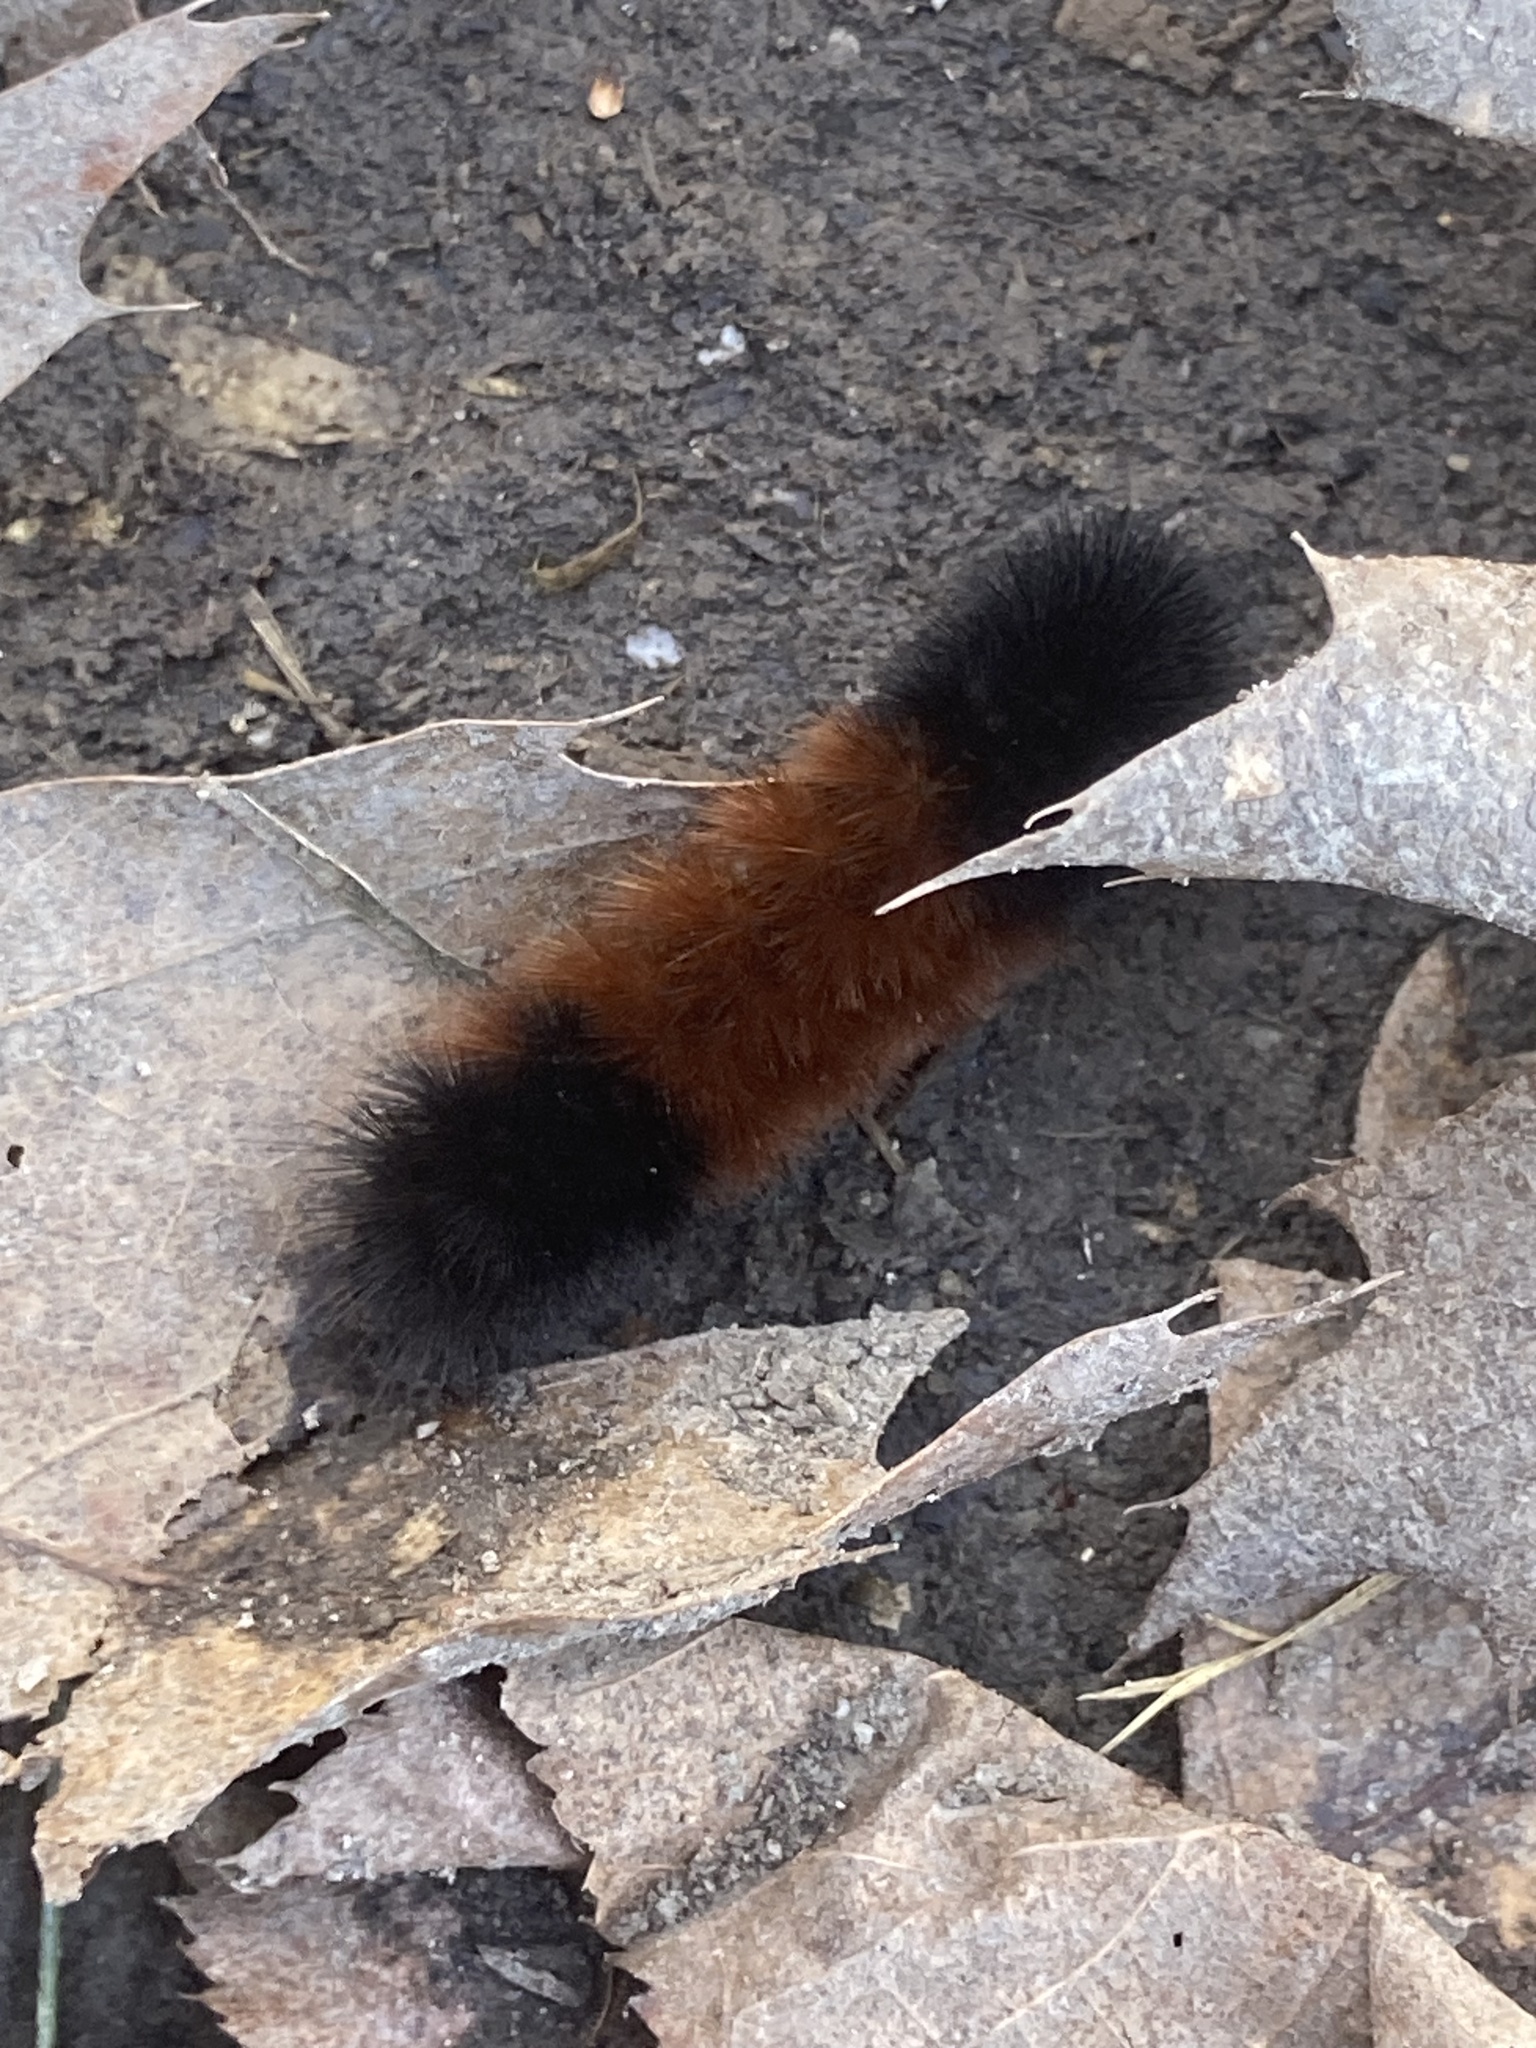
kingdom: Animalia
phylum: Arthropoda
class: Insecta
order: Lepidoptera
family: Erebidae
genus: Pyrrharctia
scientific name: Pyrrharctia isabella
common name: Isabella tiger moth
